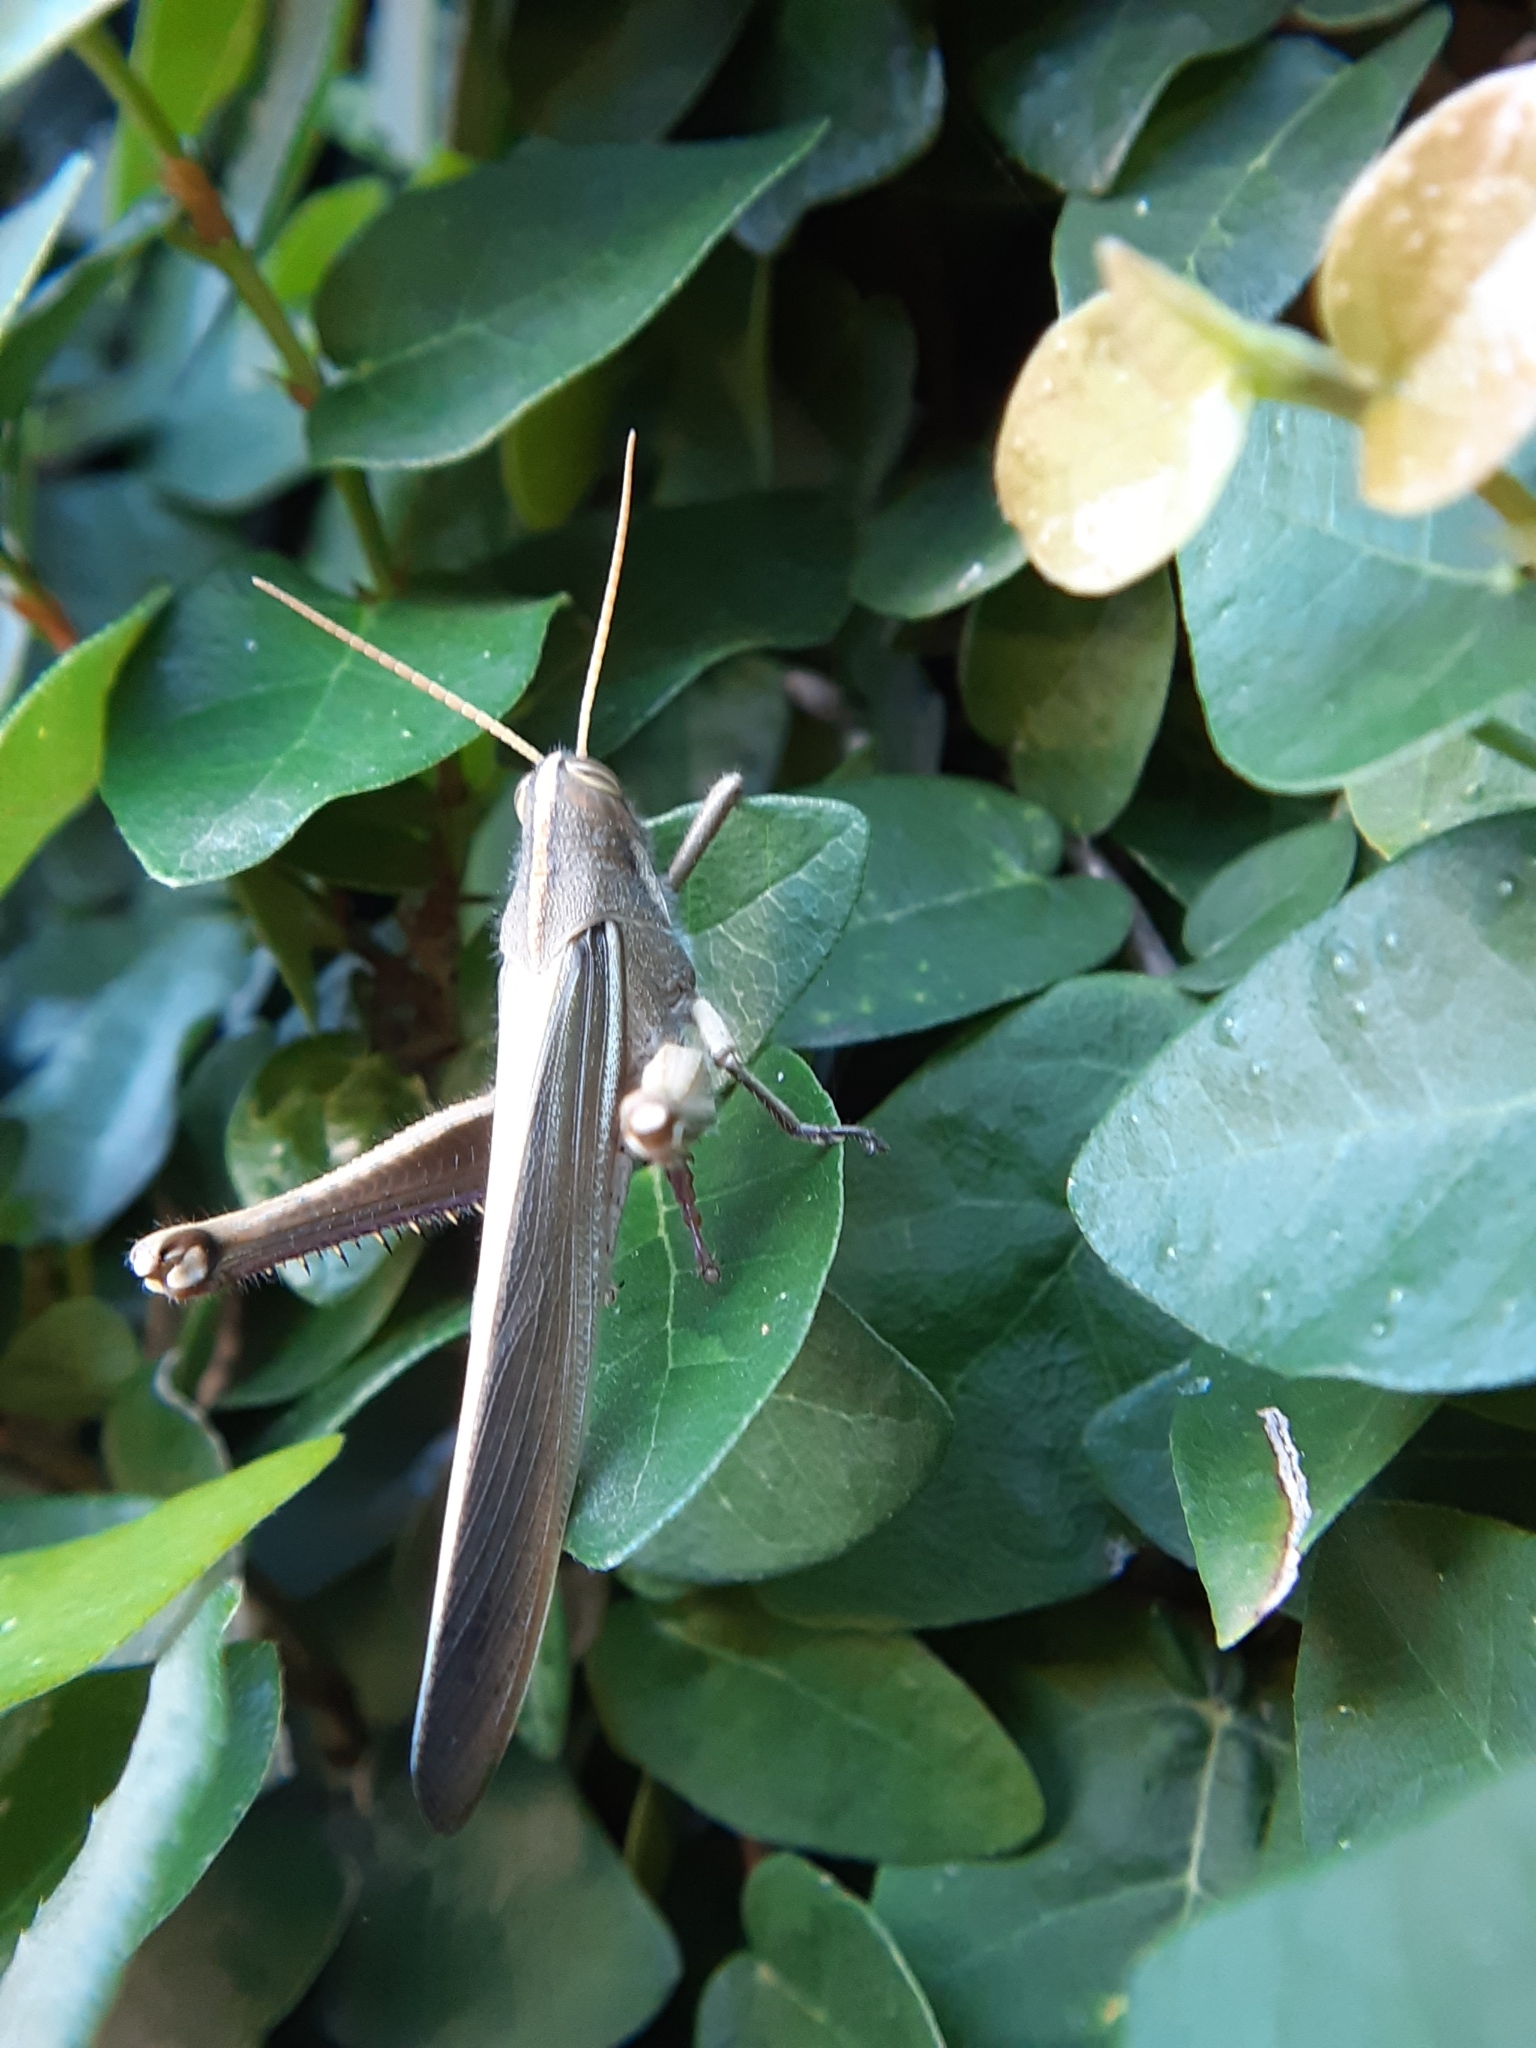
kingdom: Animalia
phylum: Arthropoda
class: Insecta
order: Orthoptera
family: Acrididae
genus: Schistocerca
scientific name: Schistocerca flavofasciata
